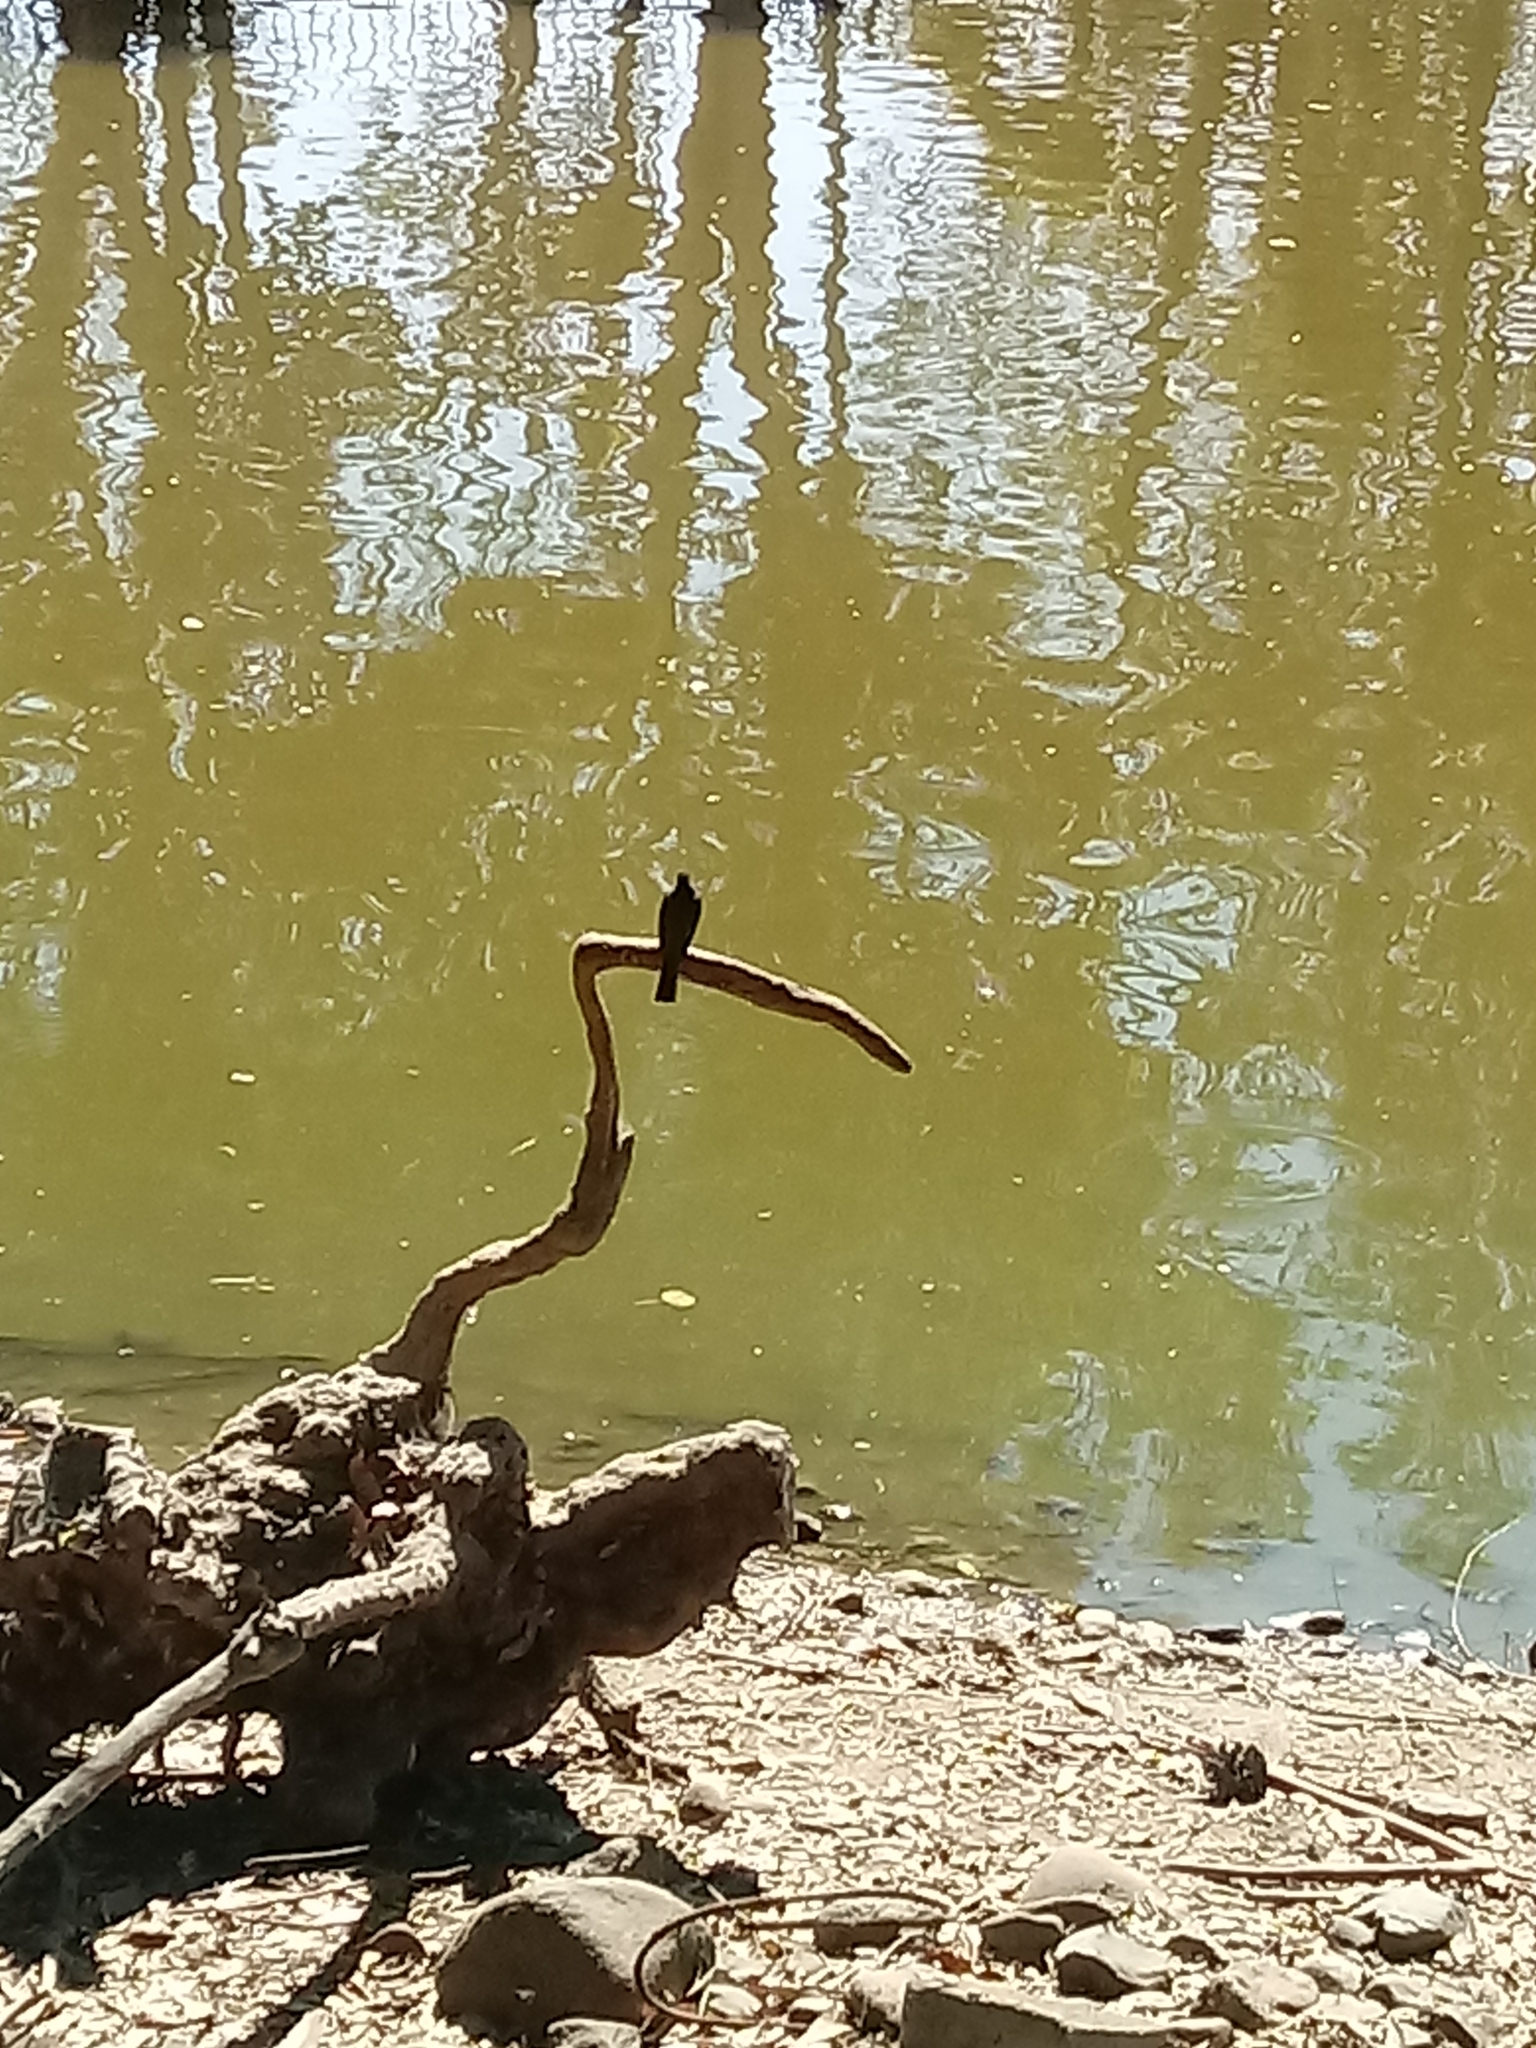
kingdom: Animalia
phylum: Chordata
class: Aves
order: Passeriformes
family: Tyrannidae
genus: Sayornis
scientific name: Sayornis nigricans
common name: Black phoebe
